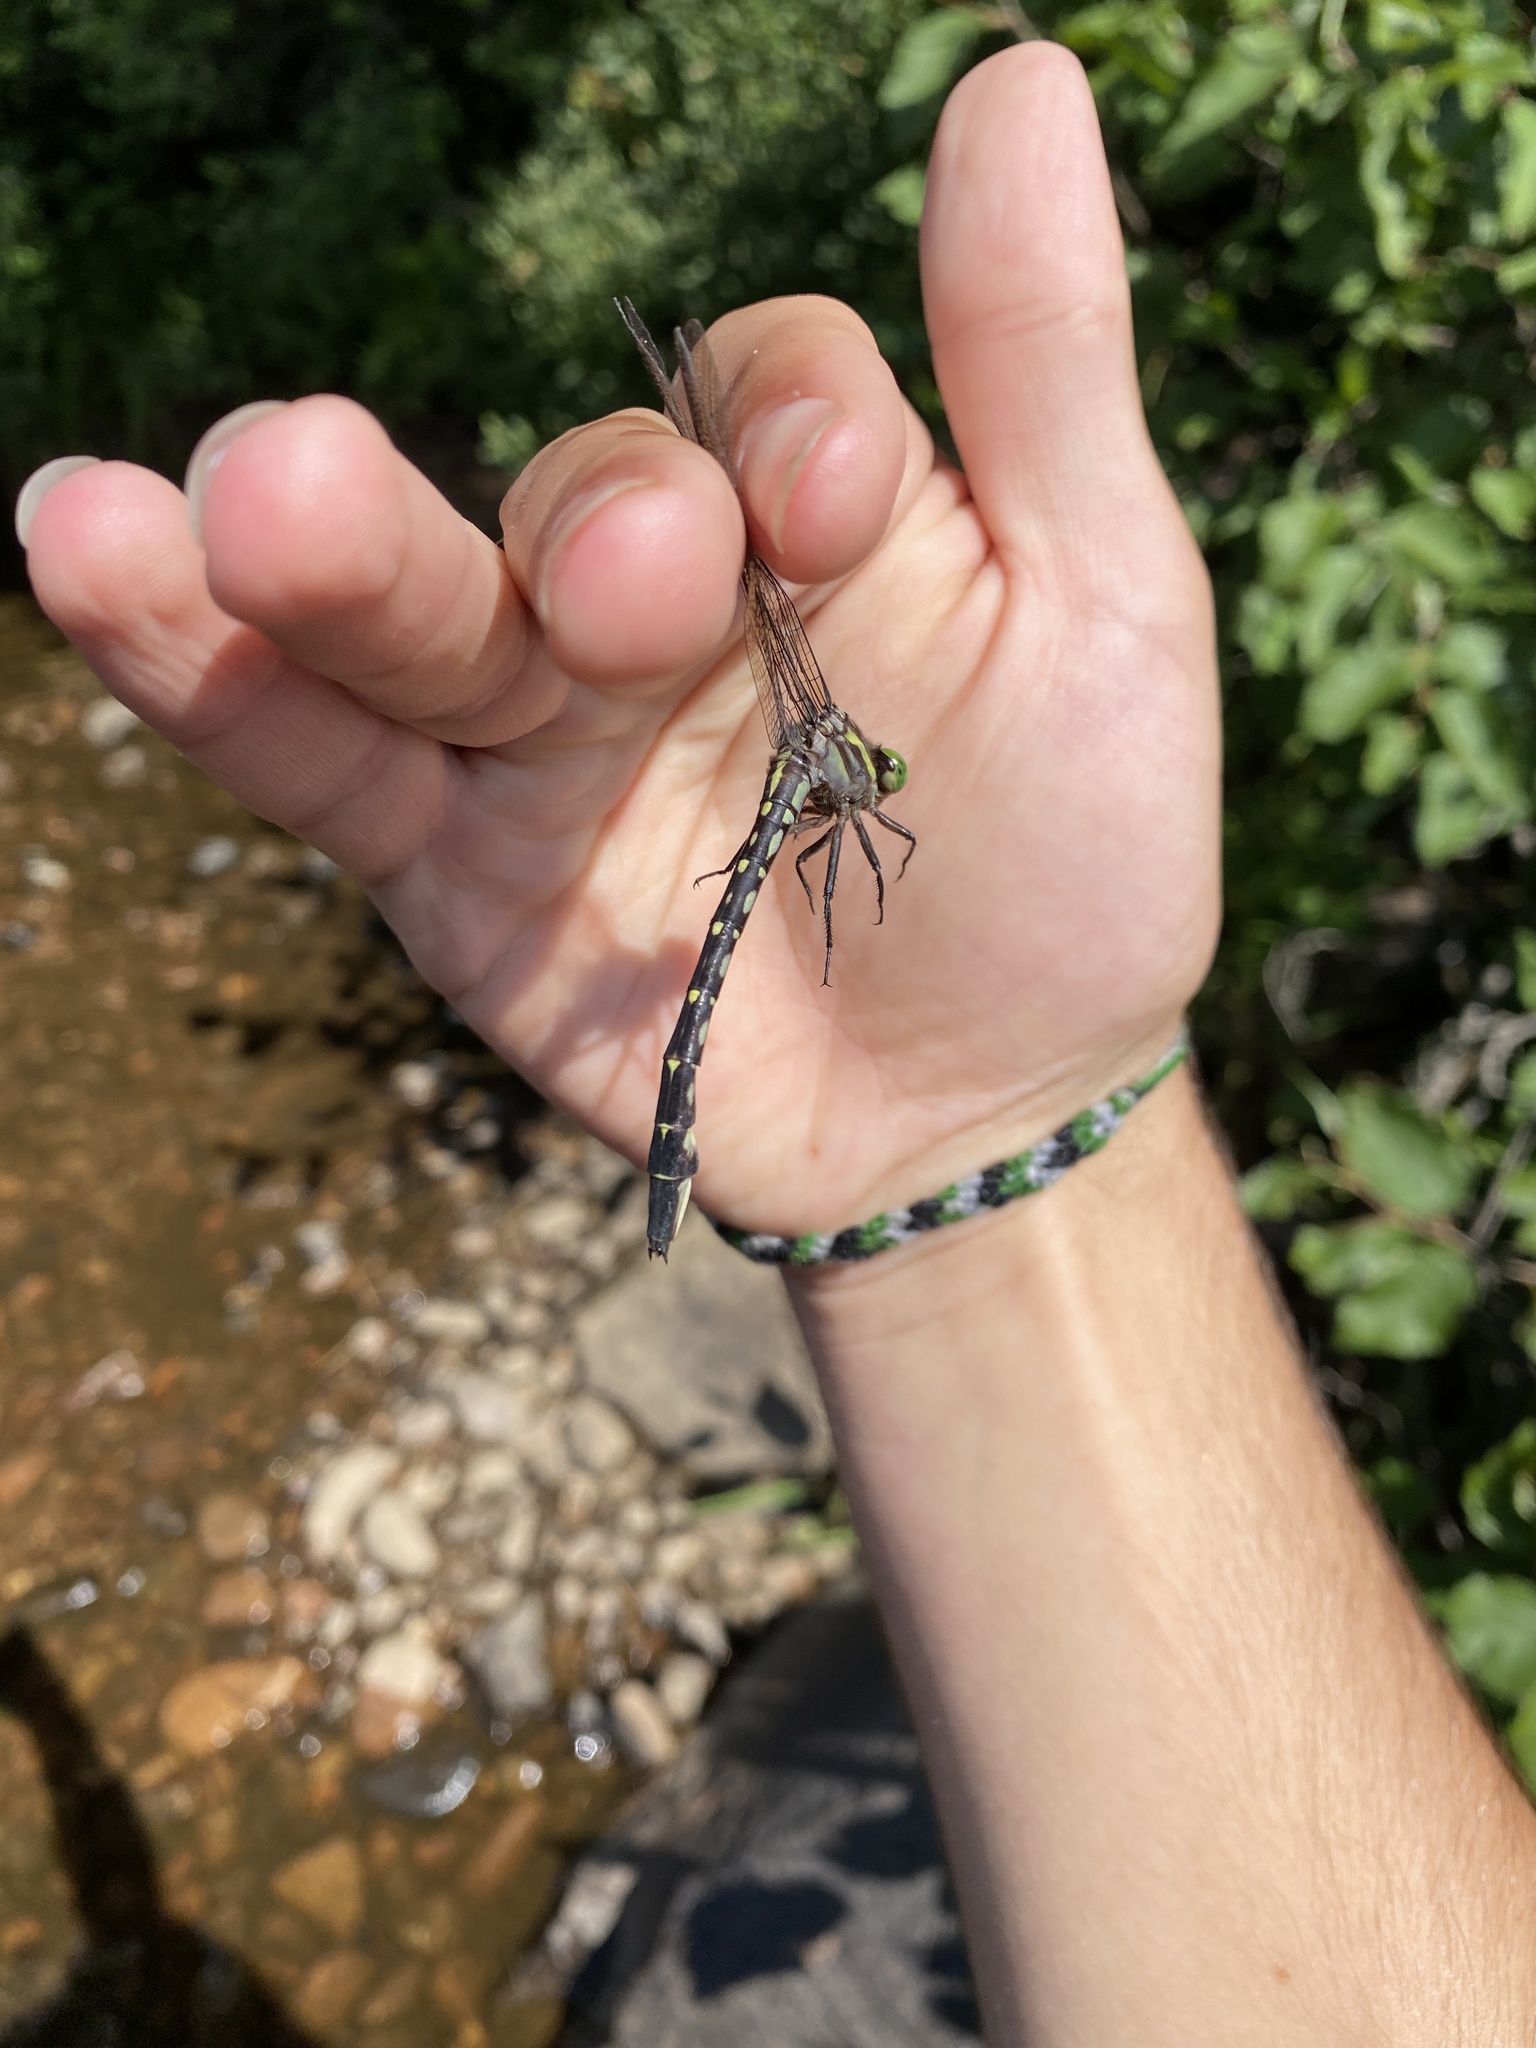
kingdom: Animalia
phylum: Arthropoda
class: Insecta
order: Odonata
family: Gomphidae
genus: Stylurus
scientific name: Stylurus spiniceps
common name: Arrow clubtail
